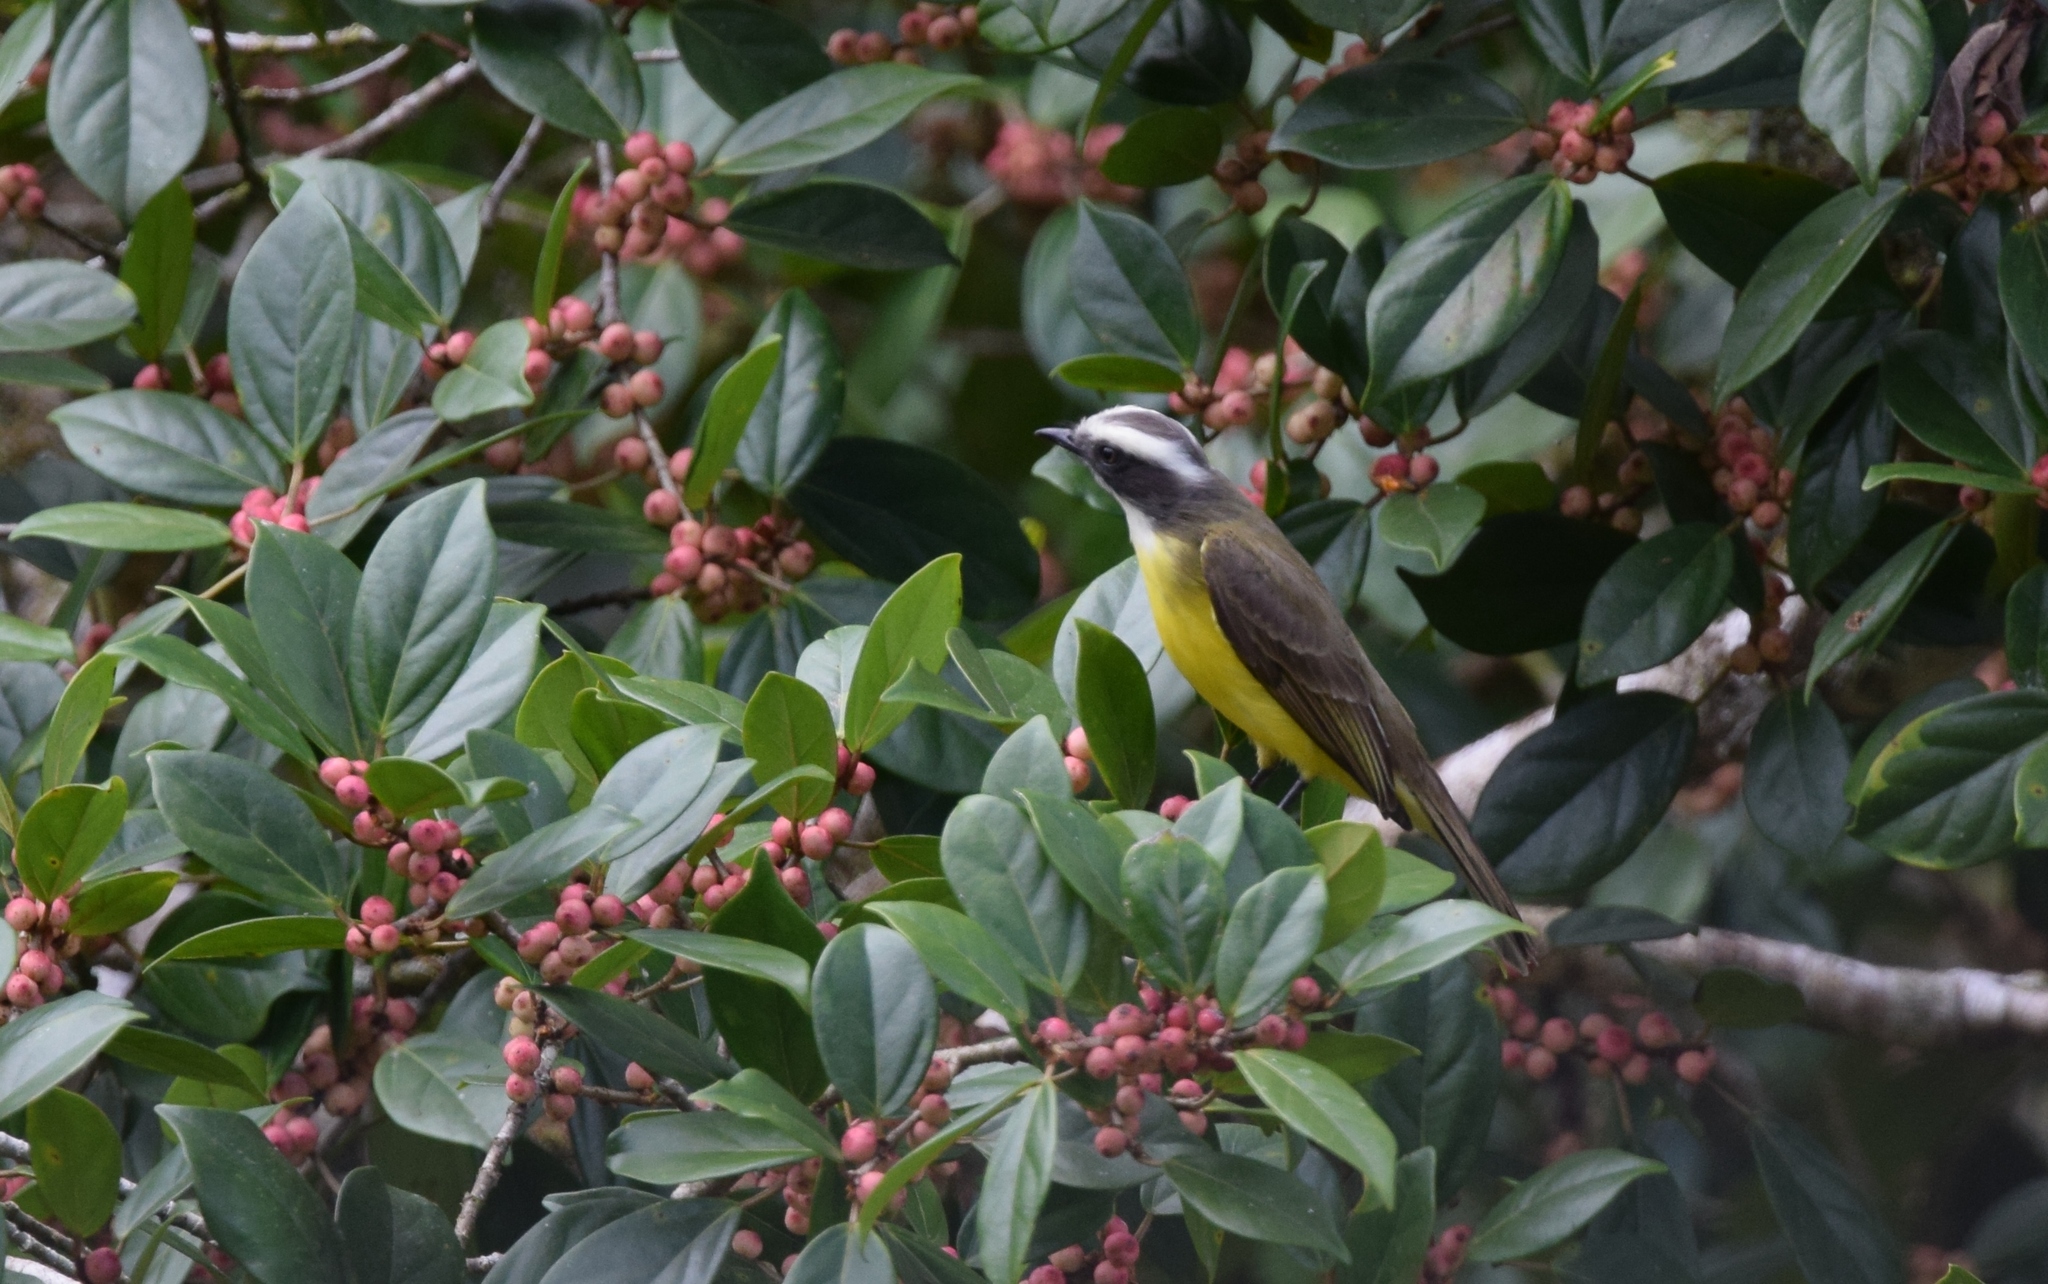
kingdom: Animalia
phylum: Chordata
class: Aves
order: Passeriformes
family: Tyrannidae
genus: Myiozetetes
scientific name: Myiozetetes similis
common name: Social flycatcher
